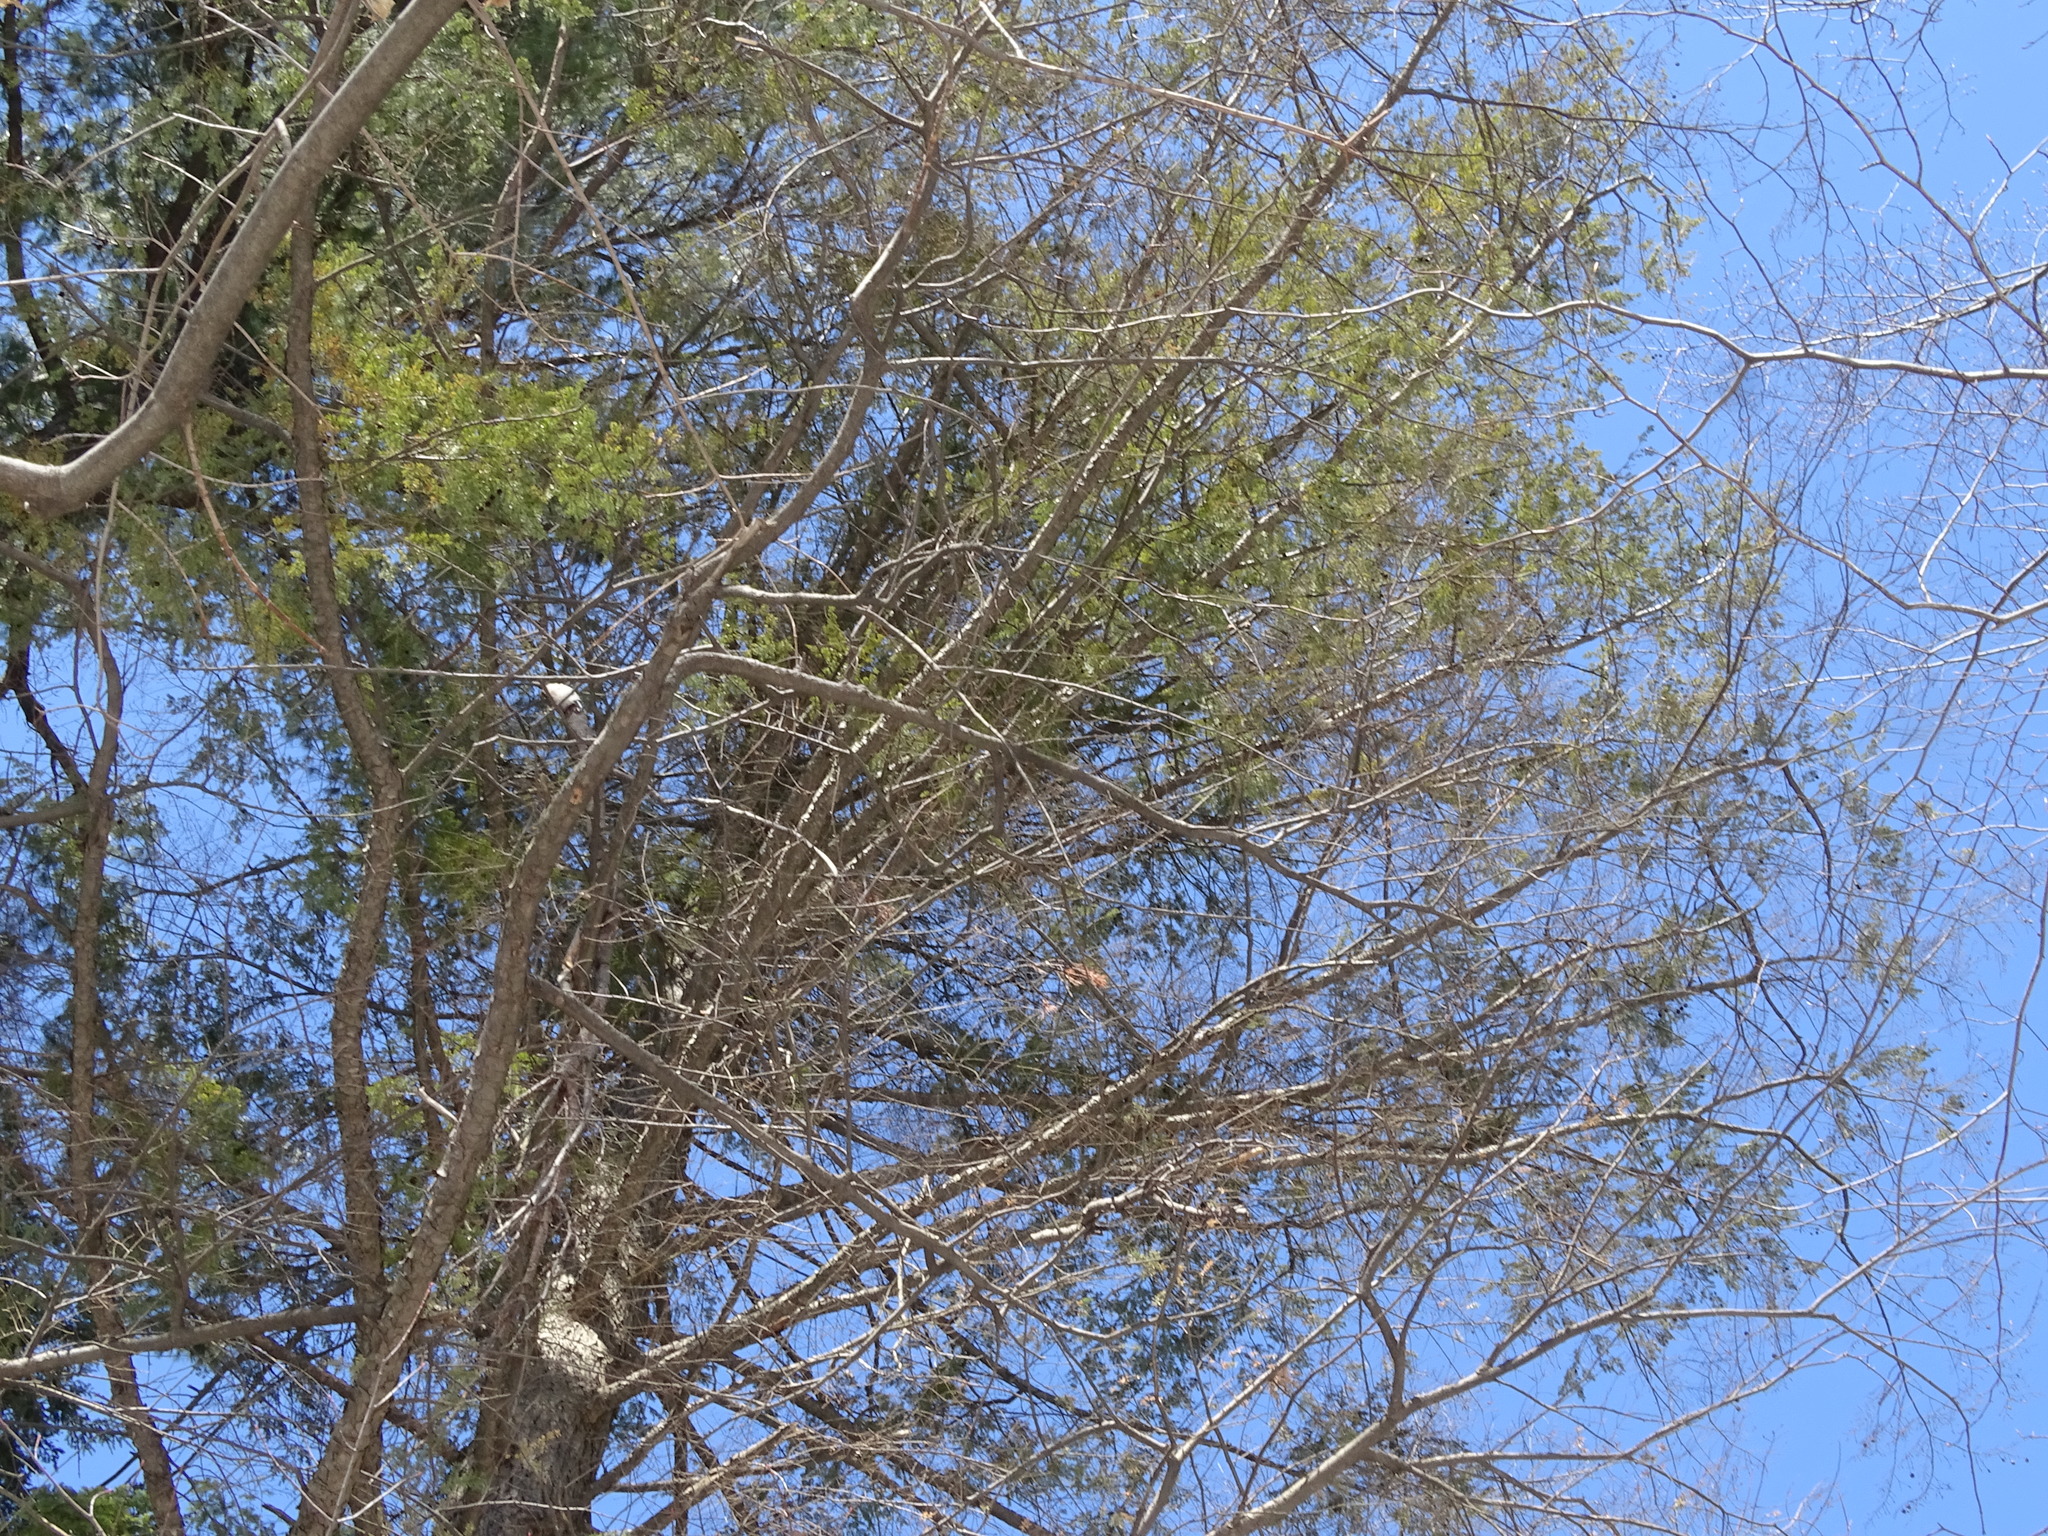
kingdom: Plantae
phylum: Tracheophyta
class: Pinopsida
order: Pinales
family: Pinaceae
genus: Tsuga
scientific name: Tsuga canadensis
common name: Eastern hemlock
